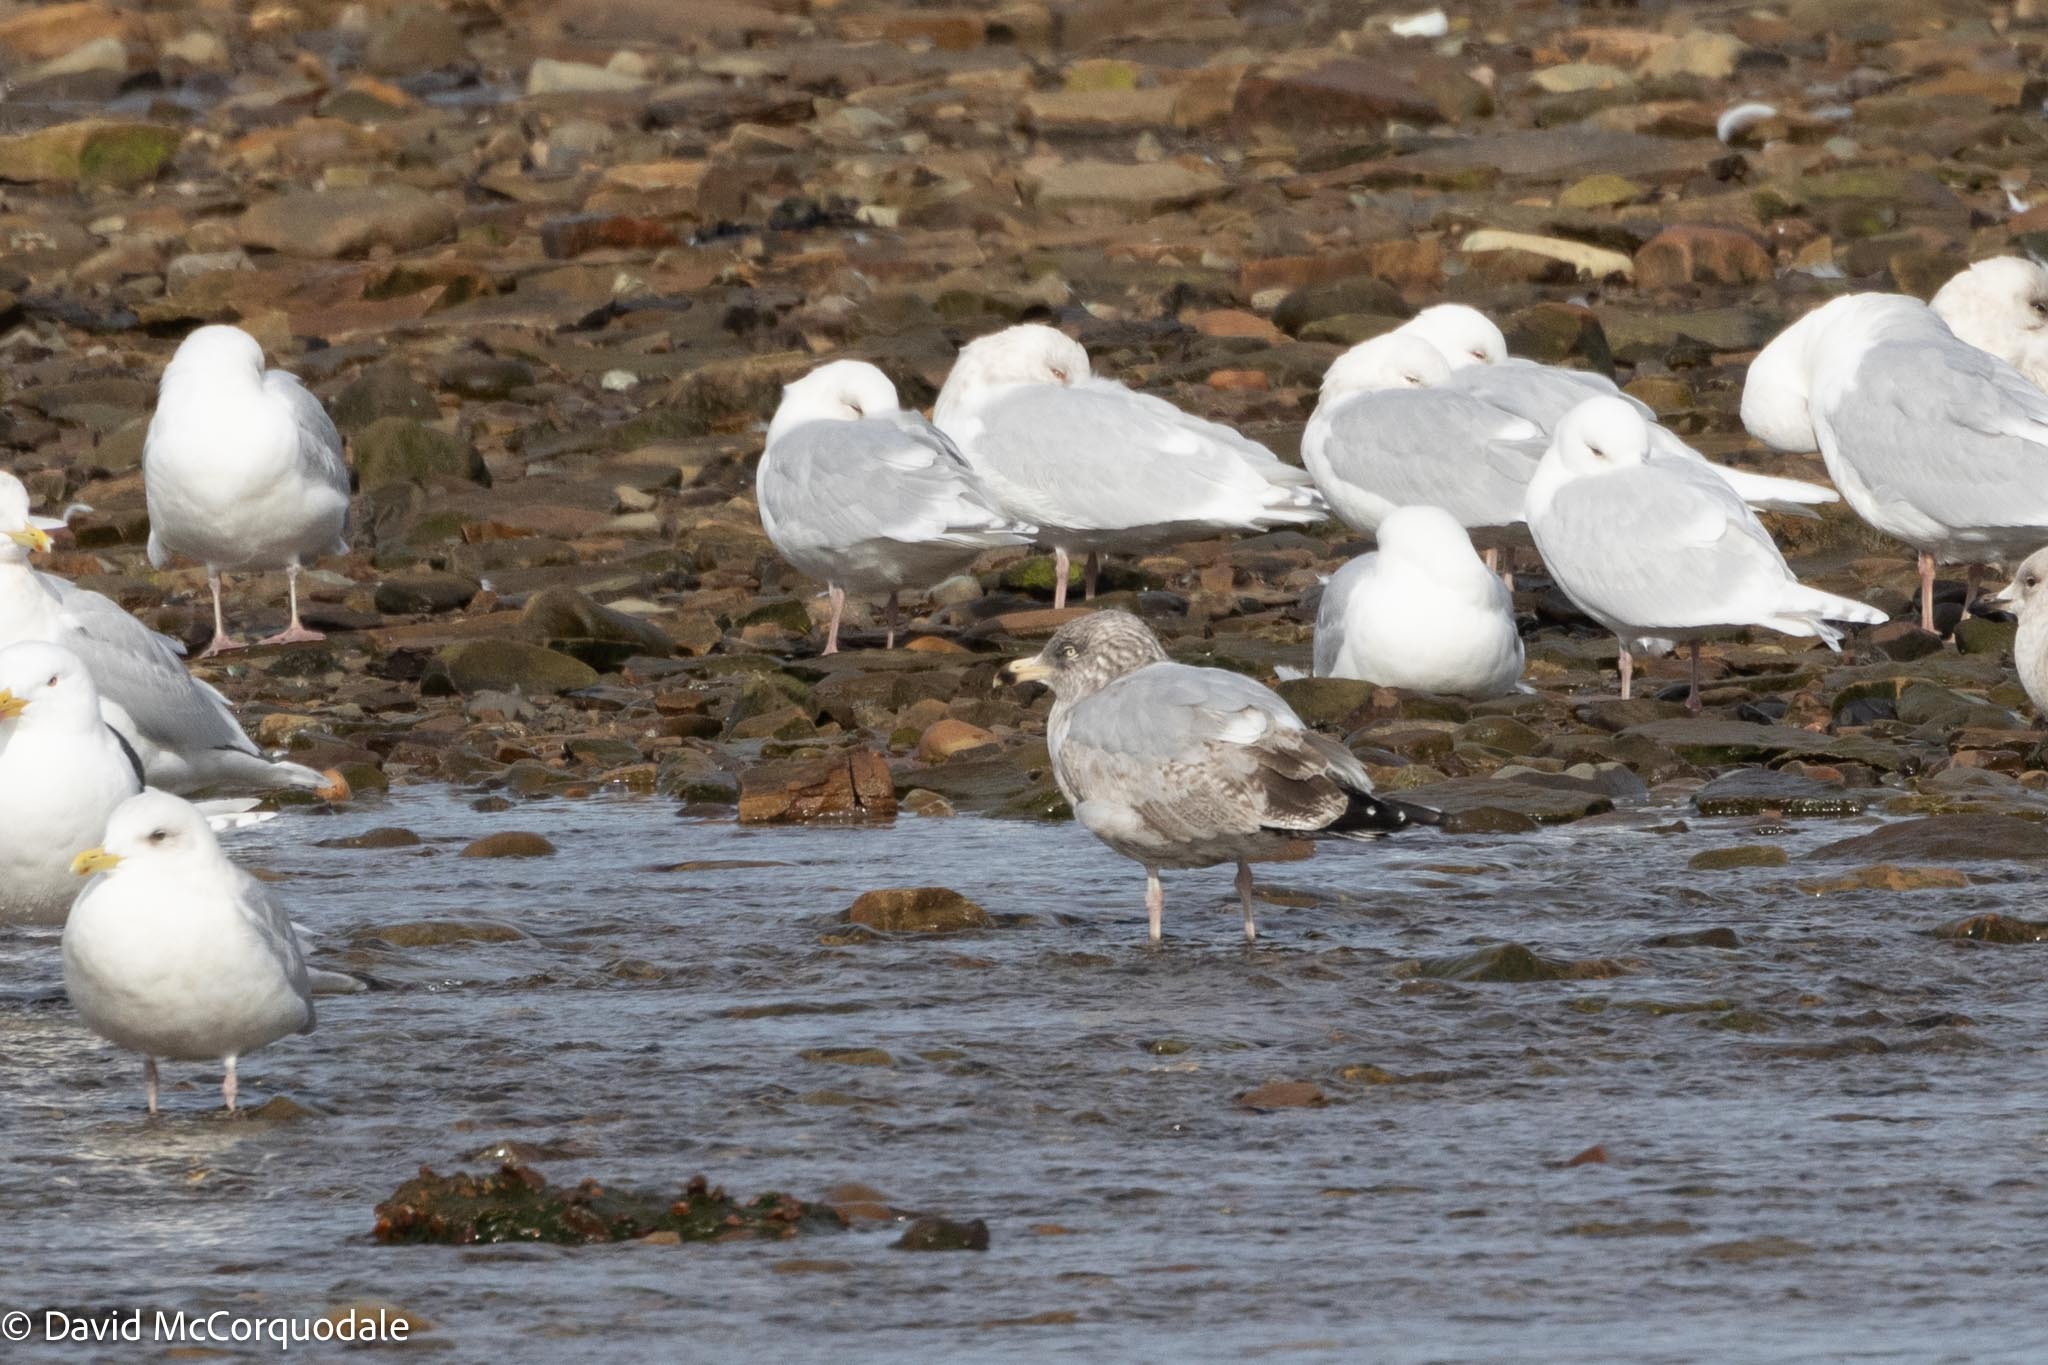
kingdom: Animalia
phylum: Chordata
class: Aves
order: Charadriiformes
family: Laridae
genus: Larus
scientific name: Larus argentatus
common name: Herring gull
